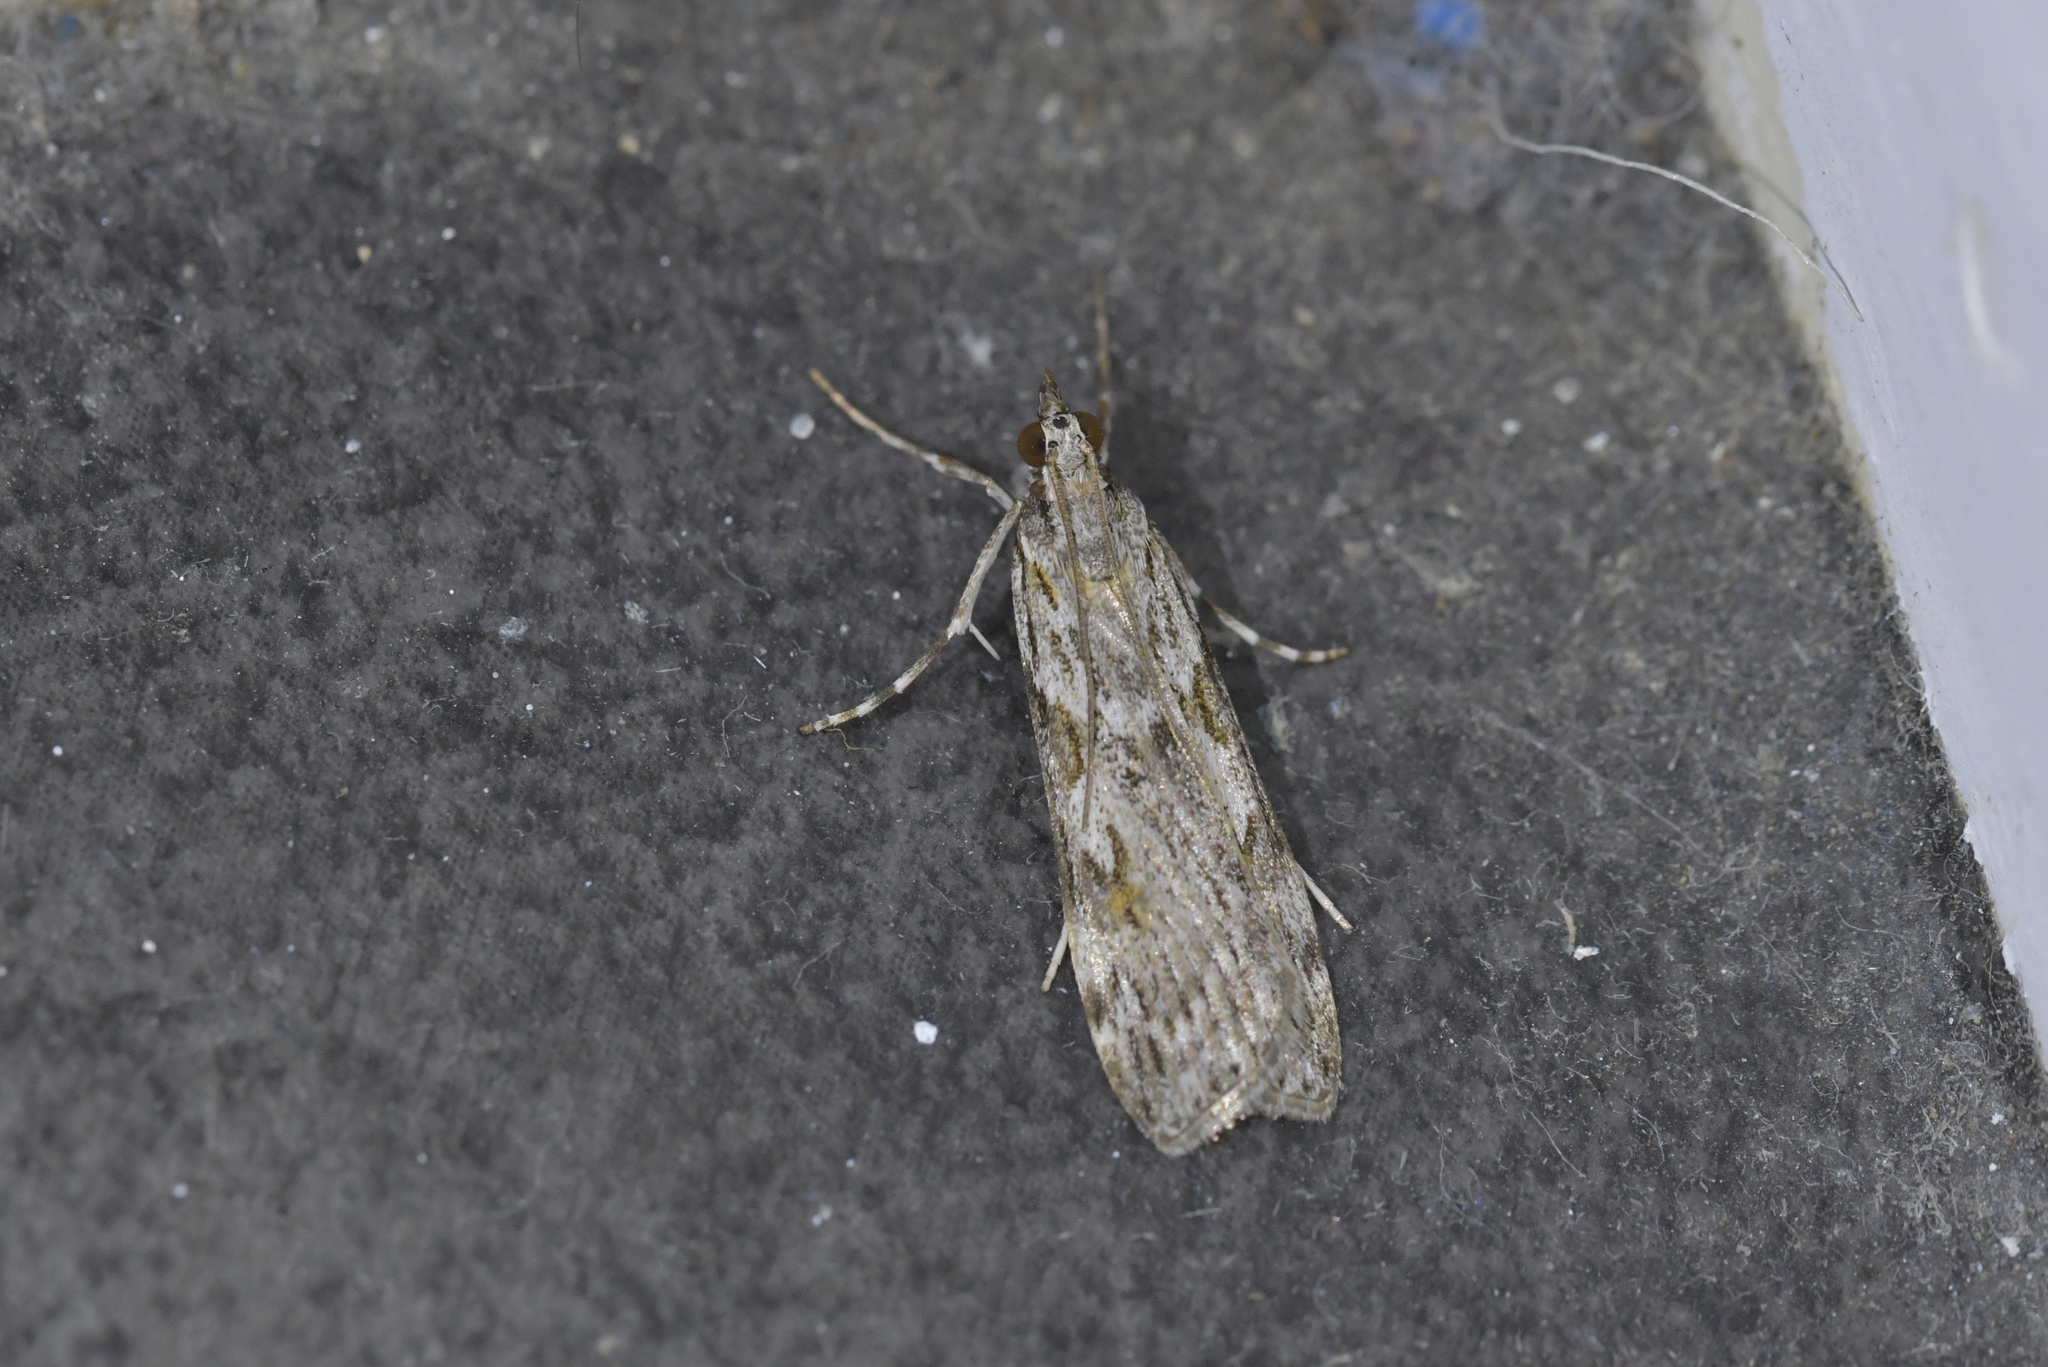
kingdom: Animalia
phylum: Arthropoda
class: Insecta
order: Lepidoptera
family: Crambidae
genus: Scoparia
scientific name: Scoparia halopis
